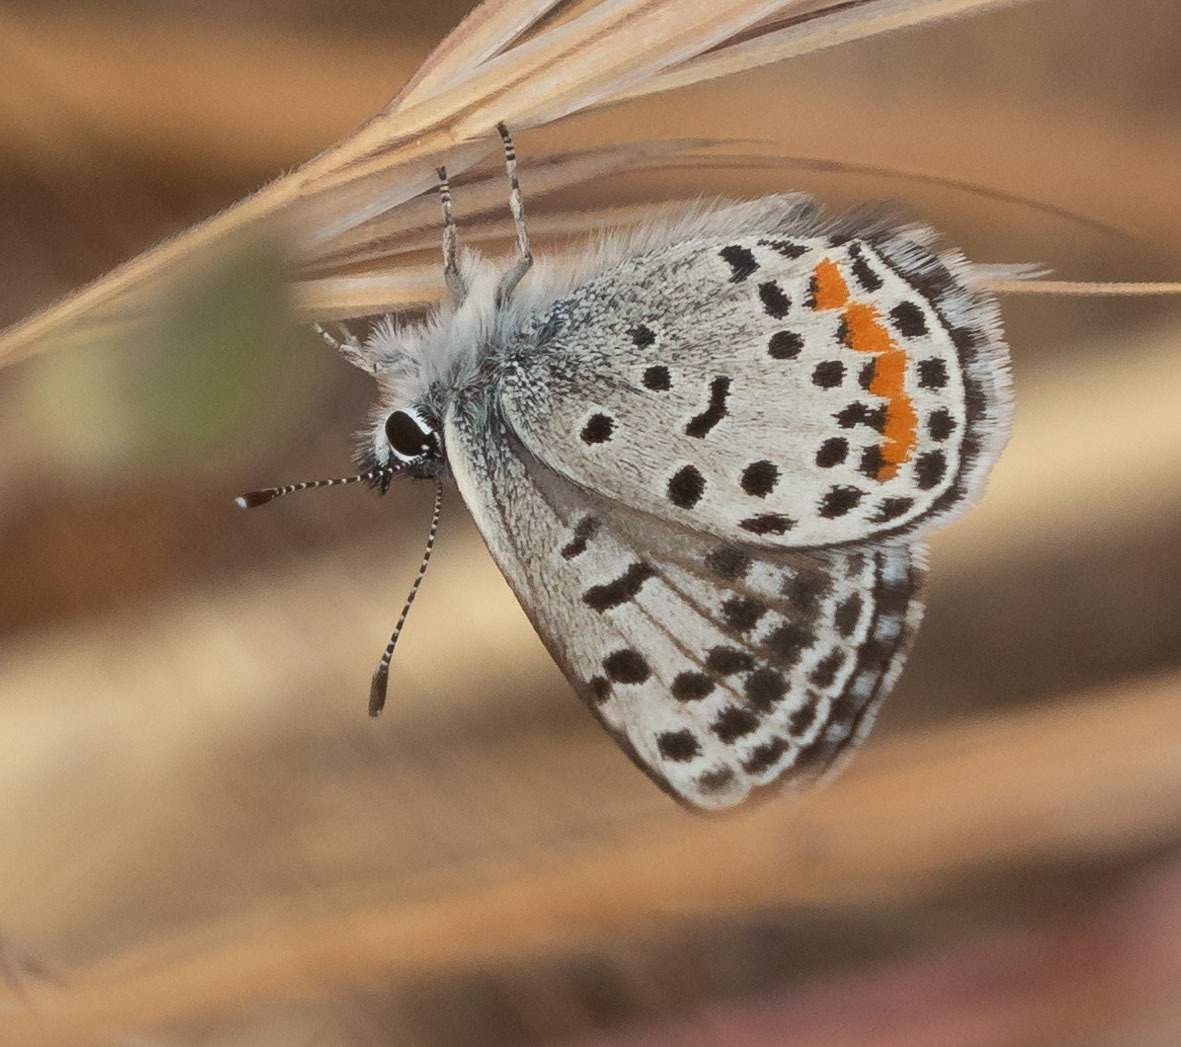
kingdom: Animalia
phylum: Arthropoda
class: Insecta
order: Lepidoptera
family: Lycaenidae
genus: Philotes
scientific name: Philotes bernardino
